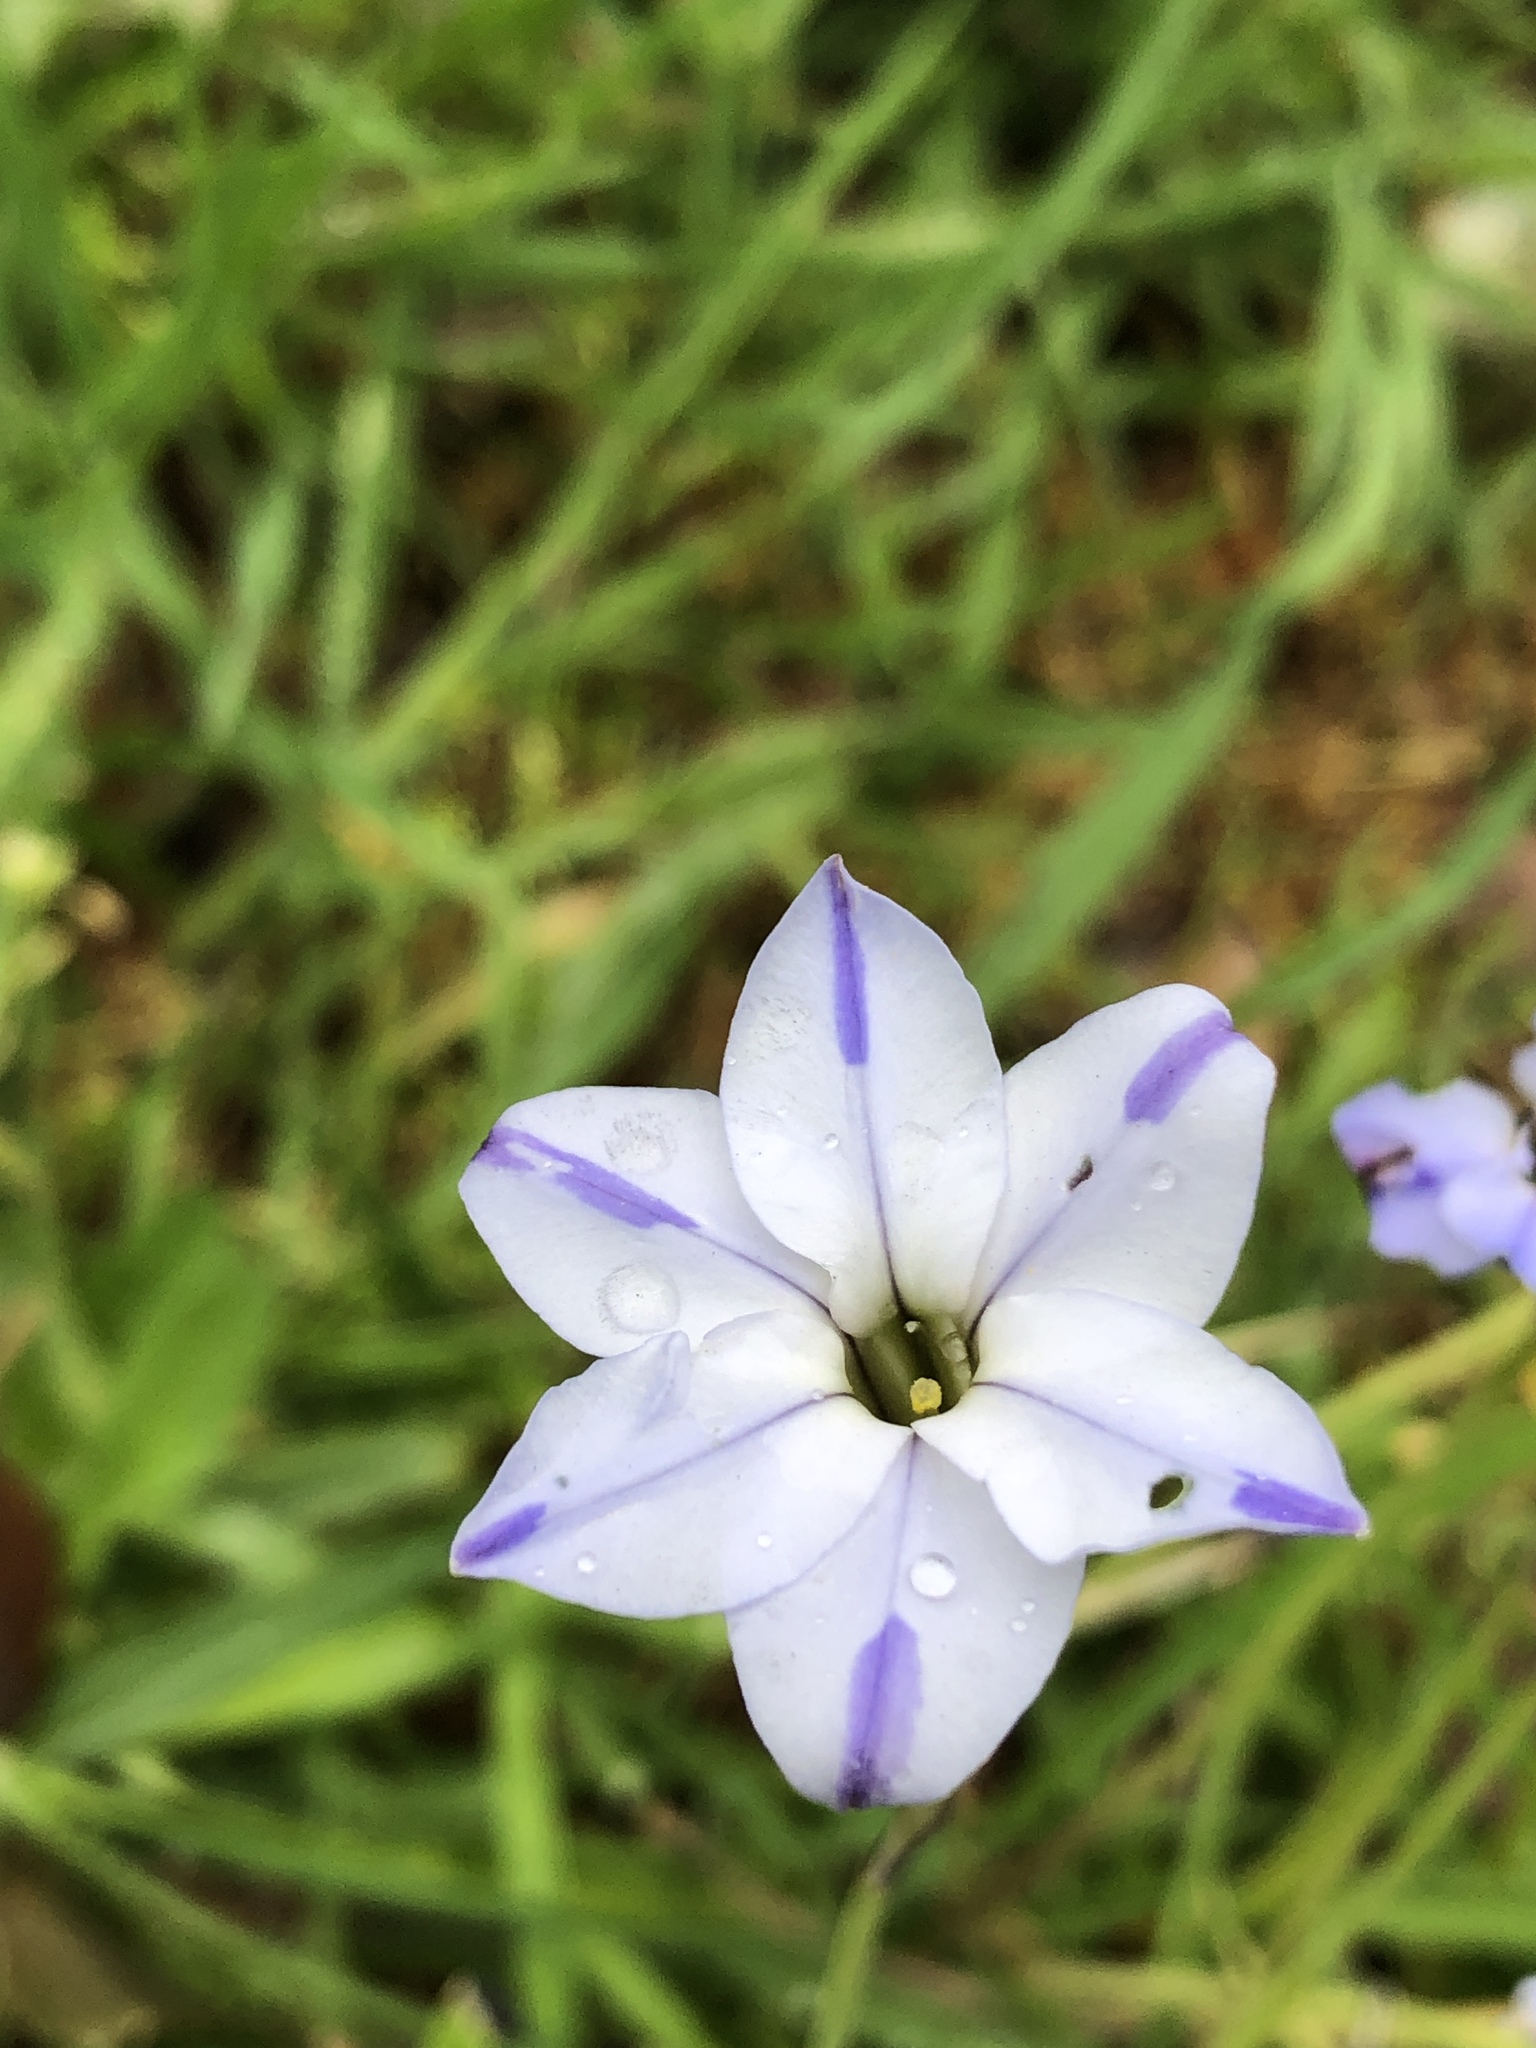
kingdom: Plantae
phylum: Tracheophyta
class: Liliopsida
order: Asparagales
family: Amaryllidaceae
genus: Ipheion
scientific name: Ipheion uniflorum
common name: Spring starflower
